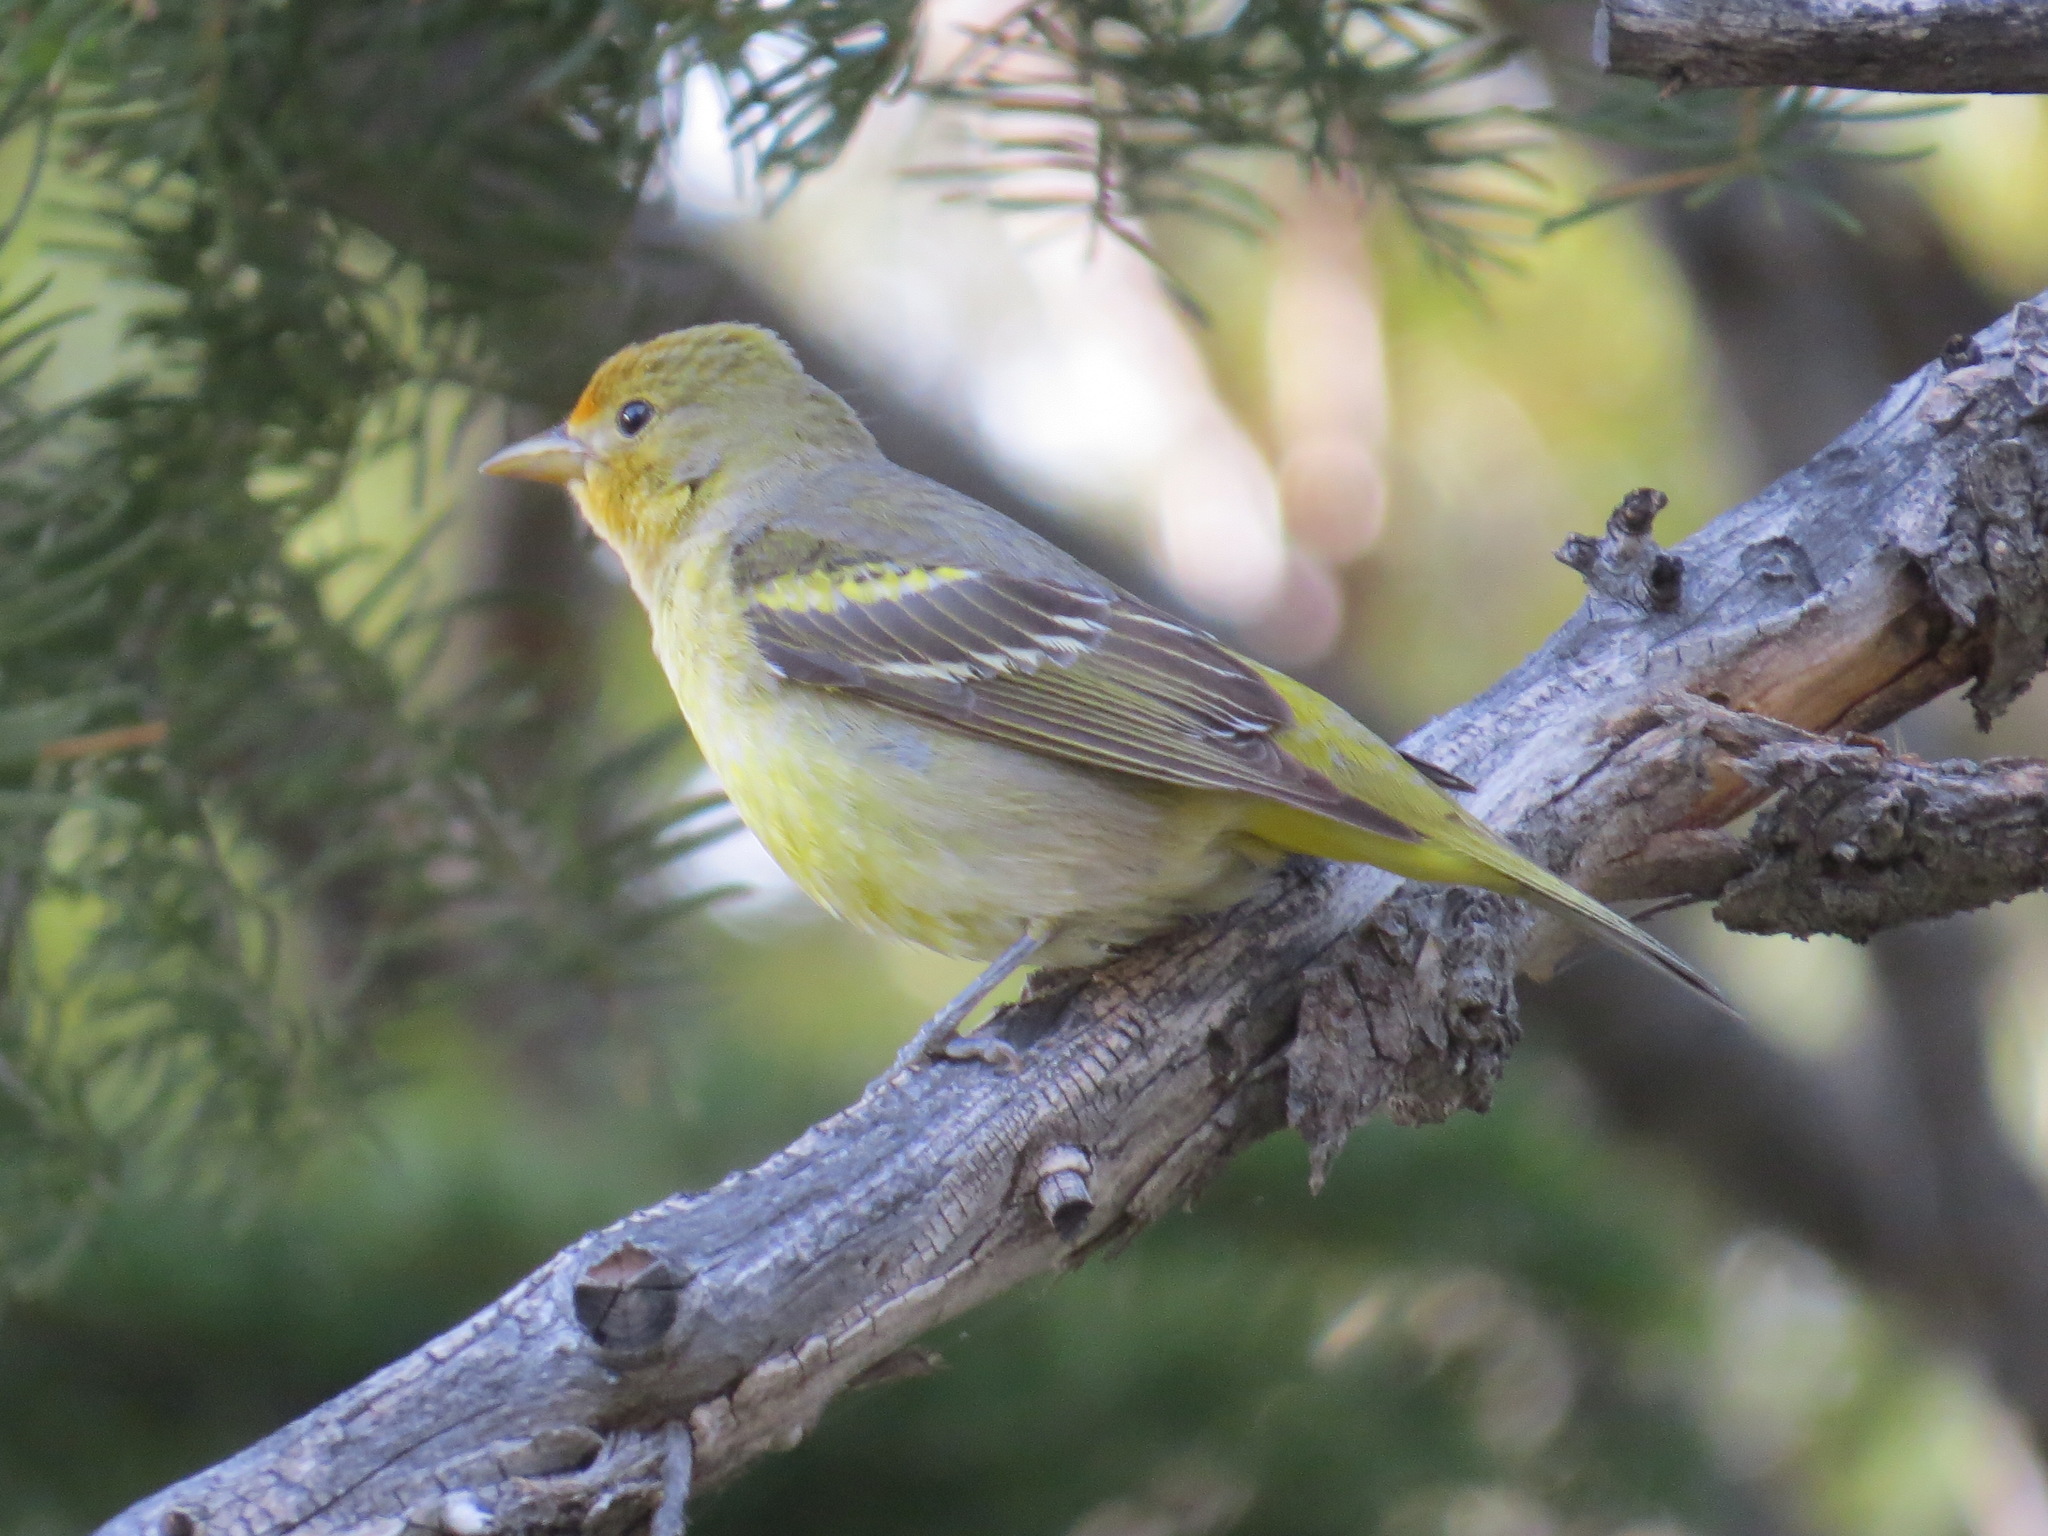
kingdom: Animalia
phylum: Chordata
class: Aves
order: Passeriformes
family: Cardinalidae
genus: Piranga
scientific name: Piranga ludoviciana
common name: Western tanager
